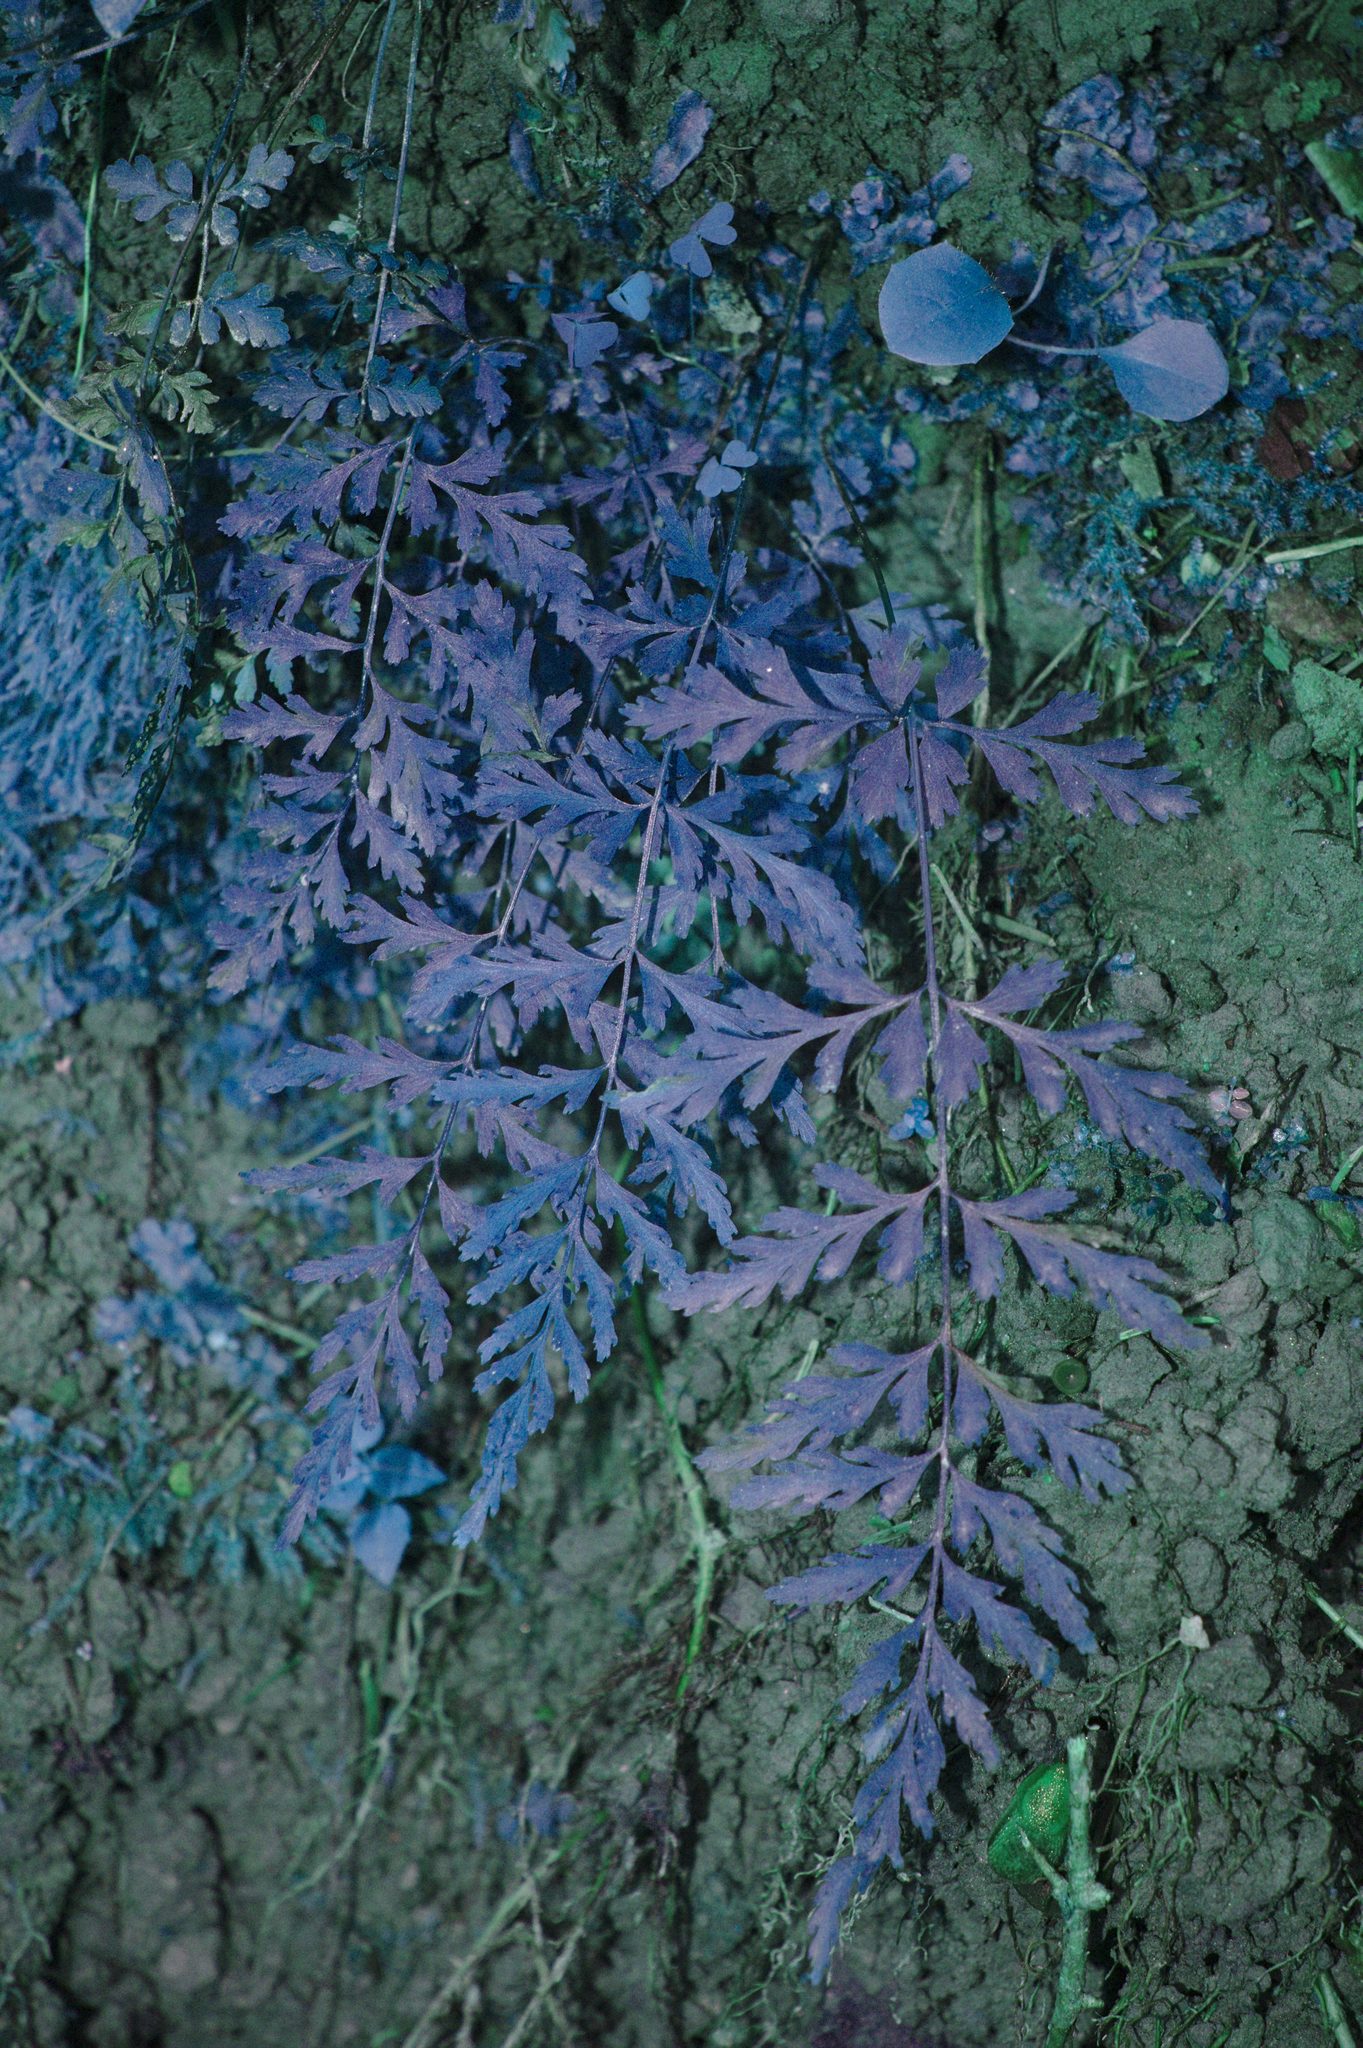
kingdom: Plantae
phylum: Tracheophyta
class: Polypodiopsida
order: Polypodiales
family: Cystopteridaceae
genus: Cystopteris
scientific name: Cystopteris tenuis
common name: Mackay's brittle fern
